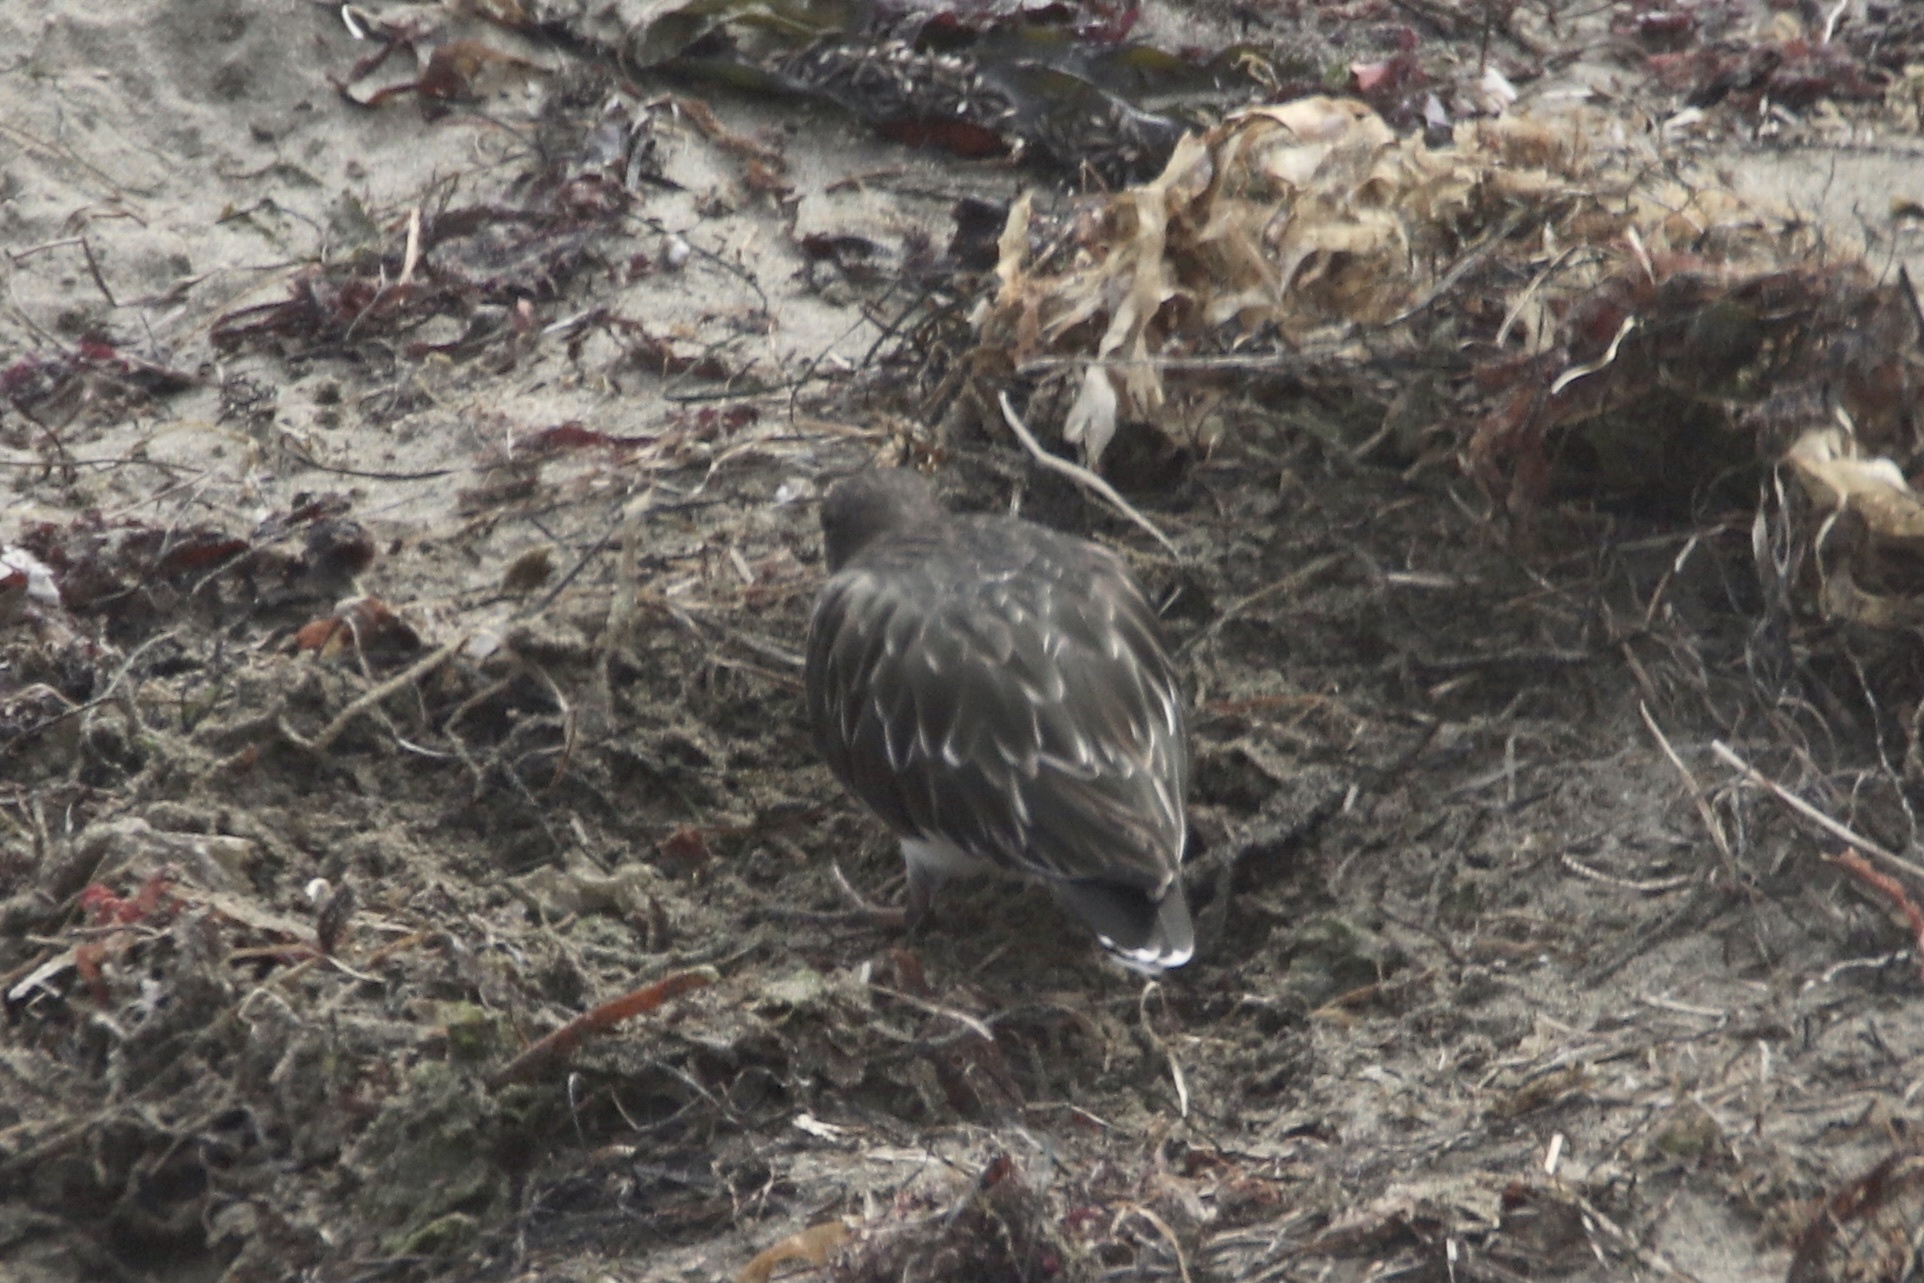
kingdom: Animalia
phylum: Chordata
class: Aves
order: Charadriiformes
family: Scolopacidae
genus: Arenaria
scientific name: Arenaria melanocephala
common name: Black turnstone
